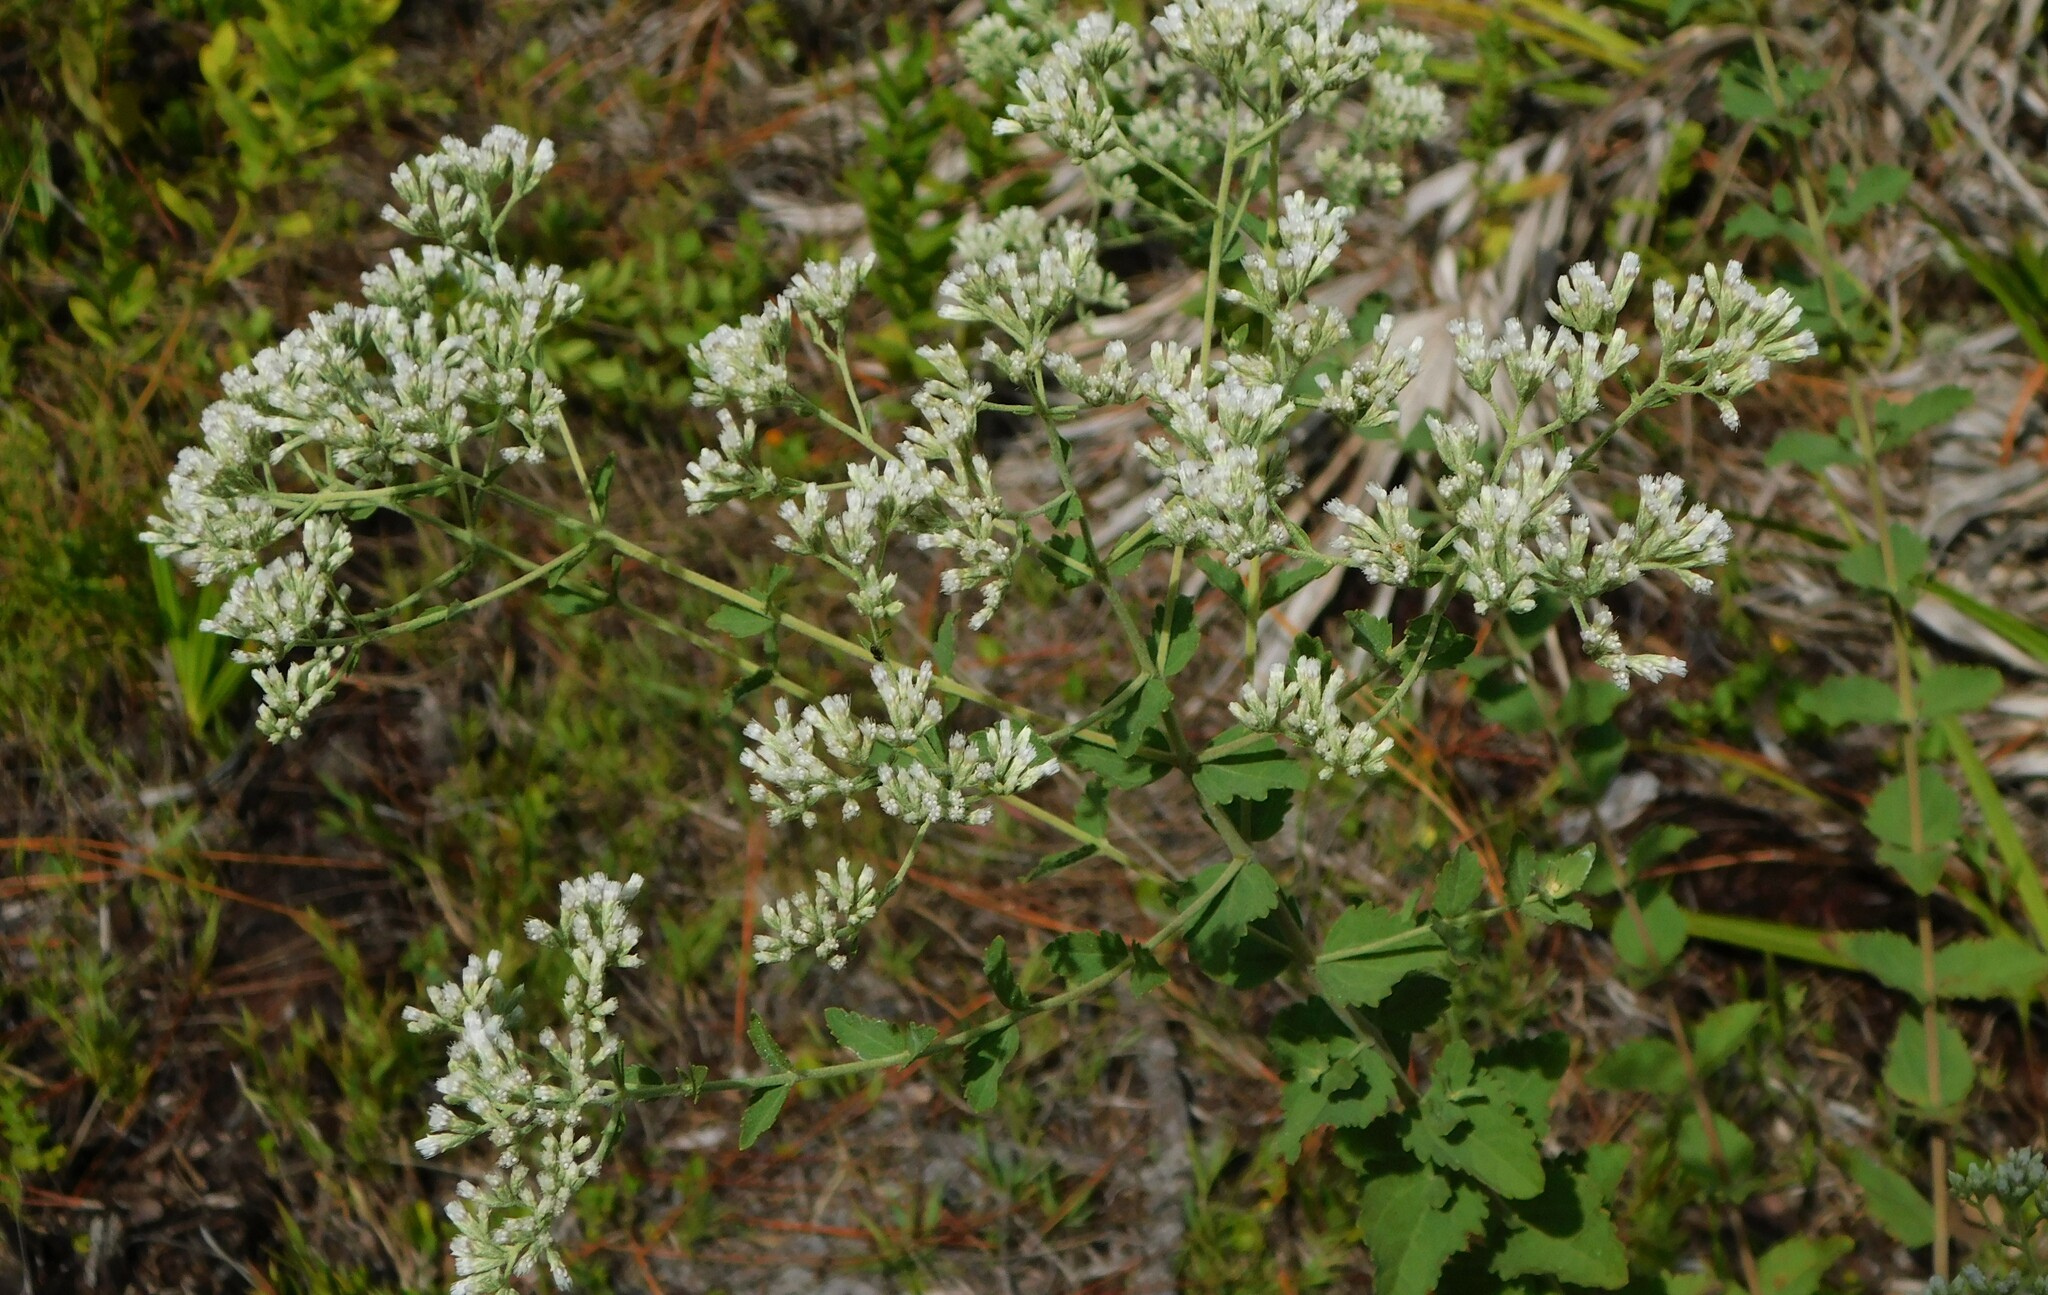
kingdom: Plantae
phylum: Tracheophyta
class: Magnoliopsida
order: Asterales
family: Asteraceae
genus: Eupatorium
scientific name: Eupatorium rotundifolium
